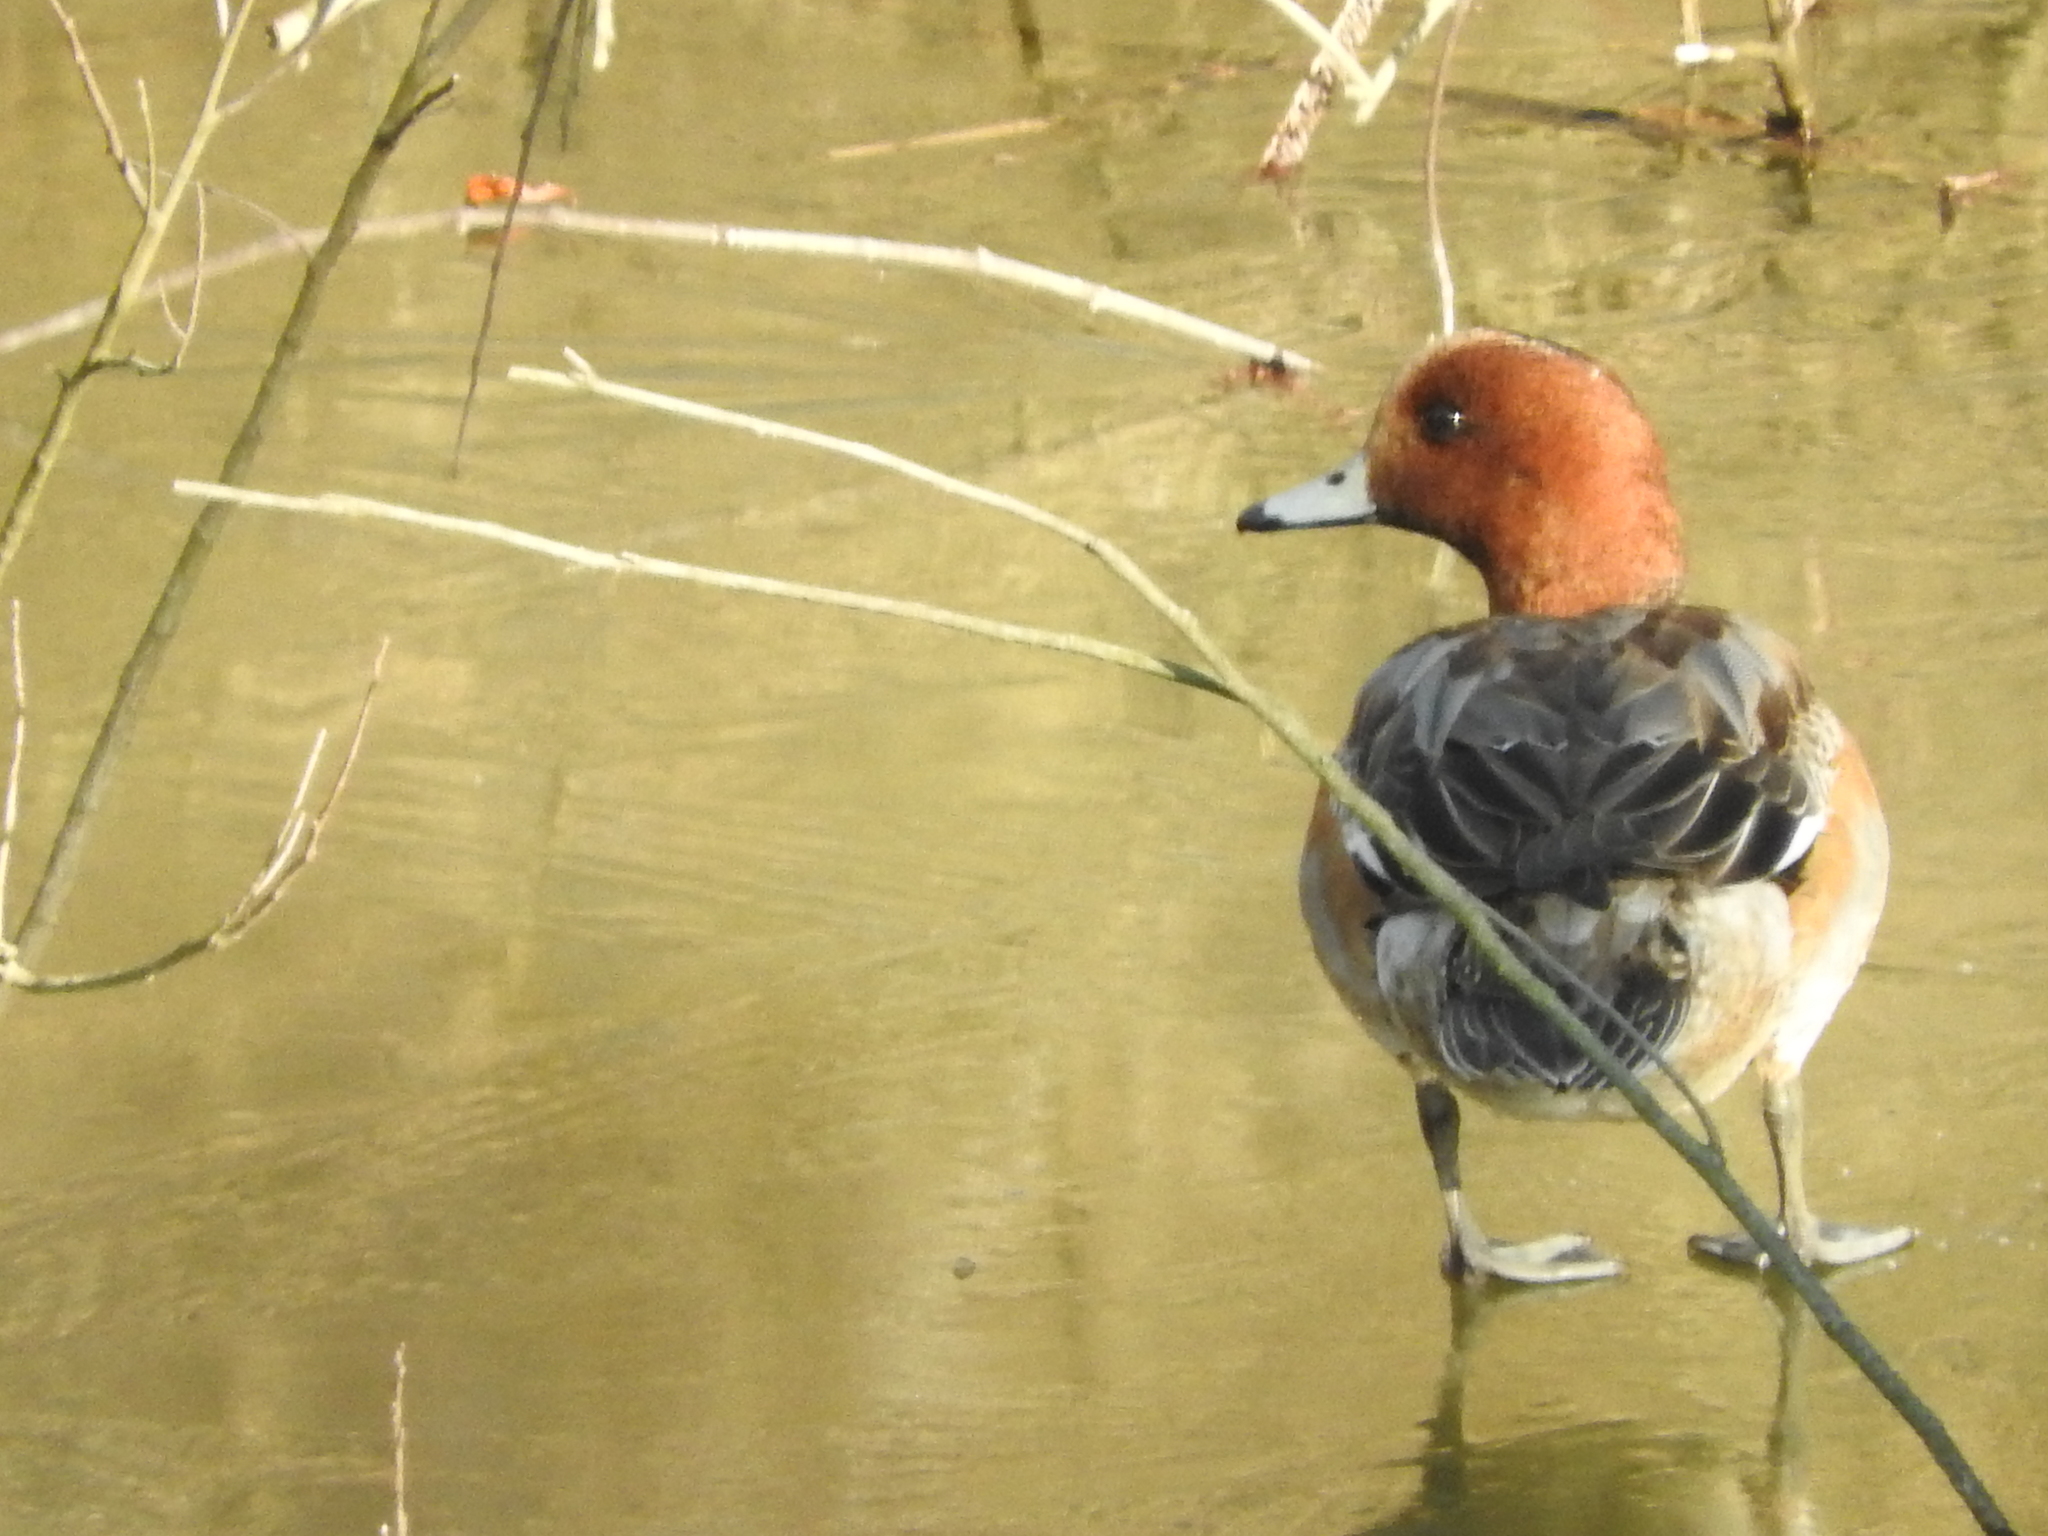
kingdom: Animalia
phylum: Chordata
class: Aves
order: Anseriformes
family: Anatidae
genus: Mareca
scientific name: Mareca penelope
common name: Eurasian wigeon
